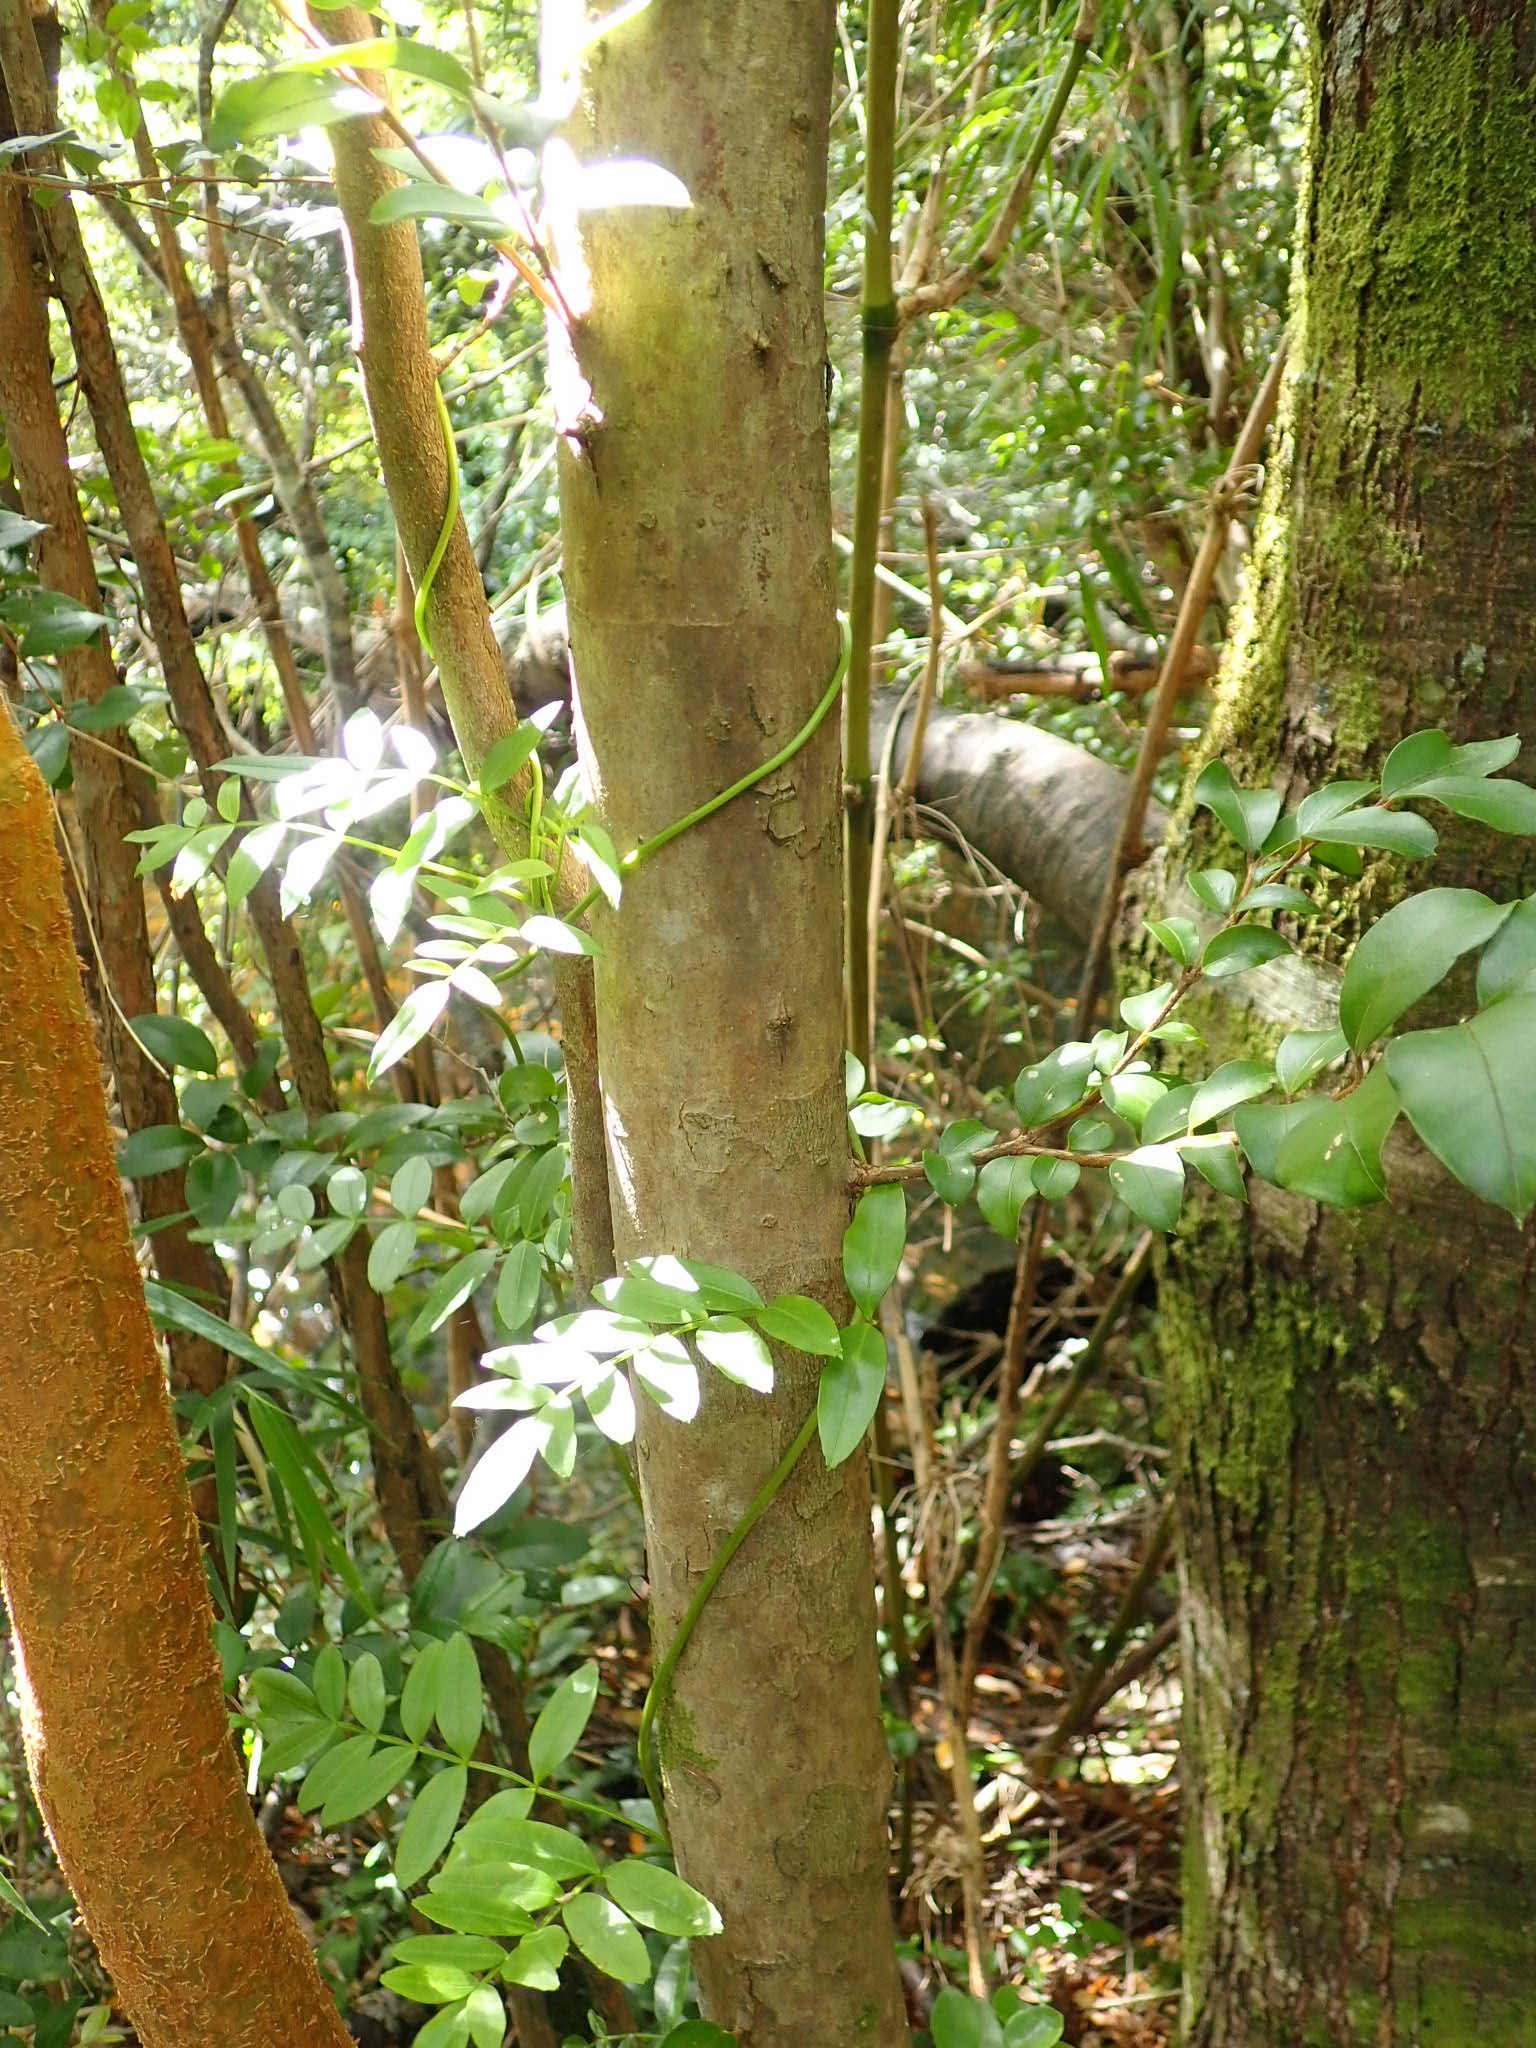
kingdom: Plantae
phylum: Tracheophyta
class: Magnoliopsida
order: Lamiales
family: Bignoniaceae
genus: Campsidium
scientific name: Campsidium valdivianum
